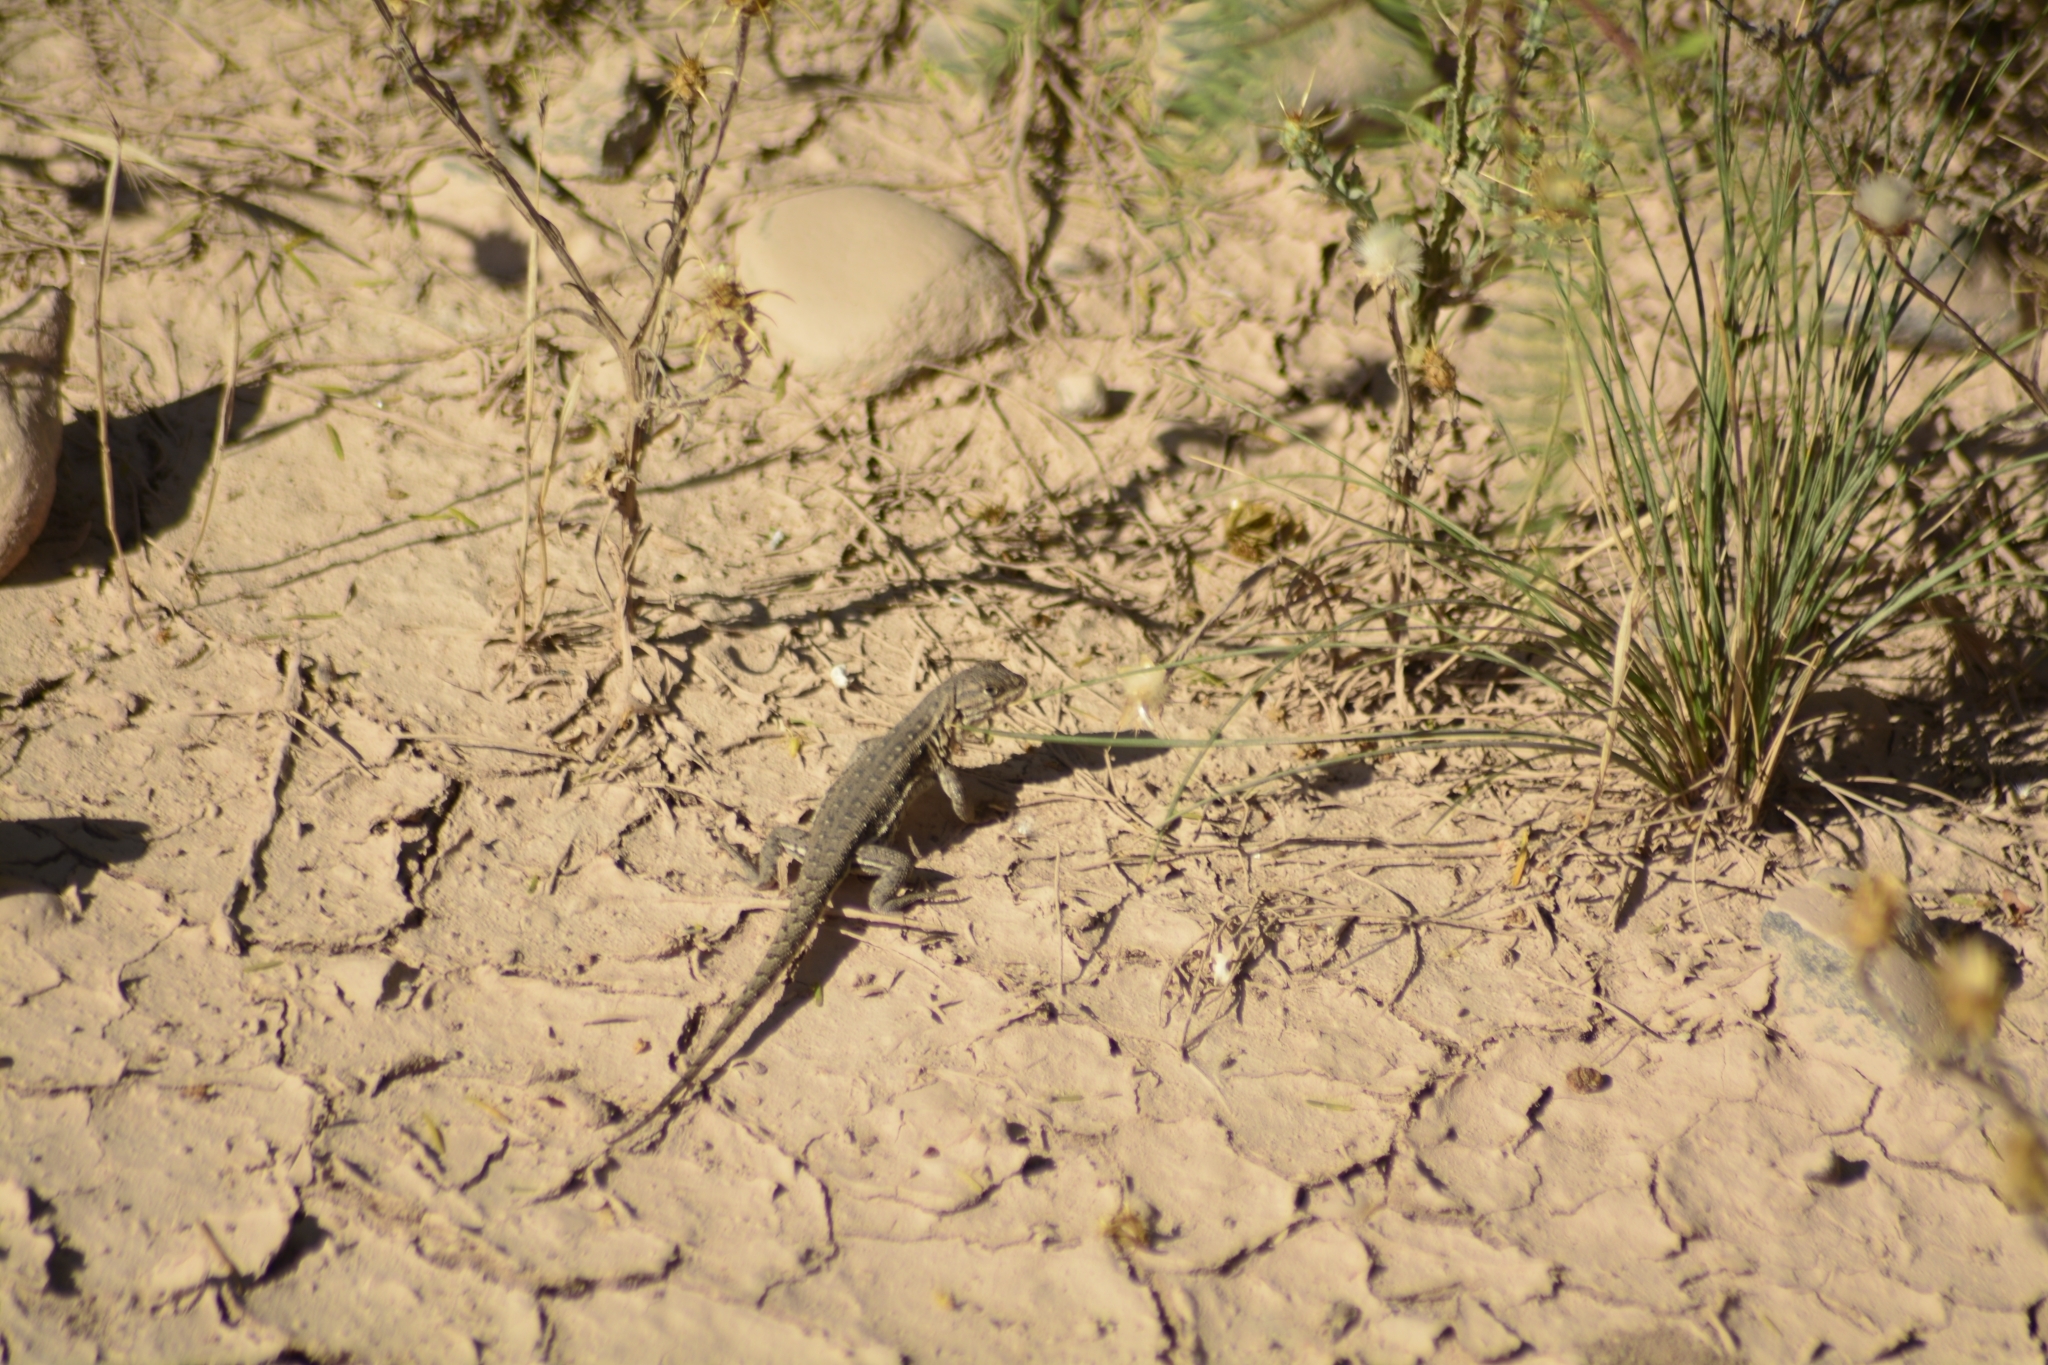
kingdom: Animalia
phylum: Chordata
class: Squamata
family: Liolaemidae
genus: Liolaemus
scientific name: Liolaemus darwinii
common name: Darwin's tree iguana
